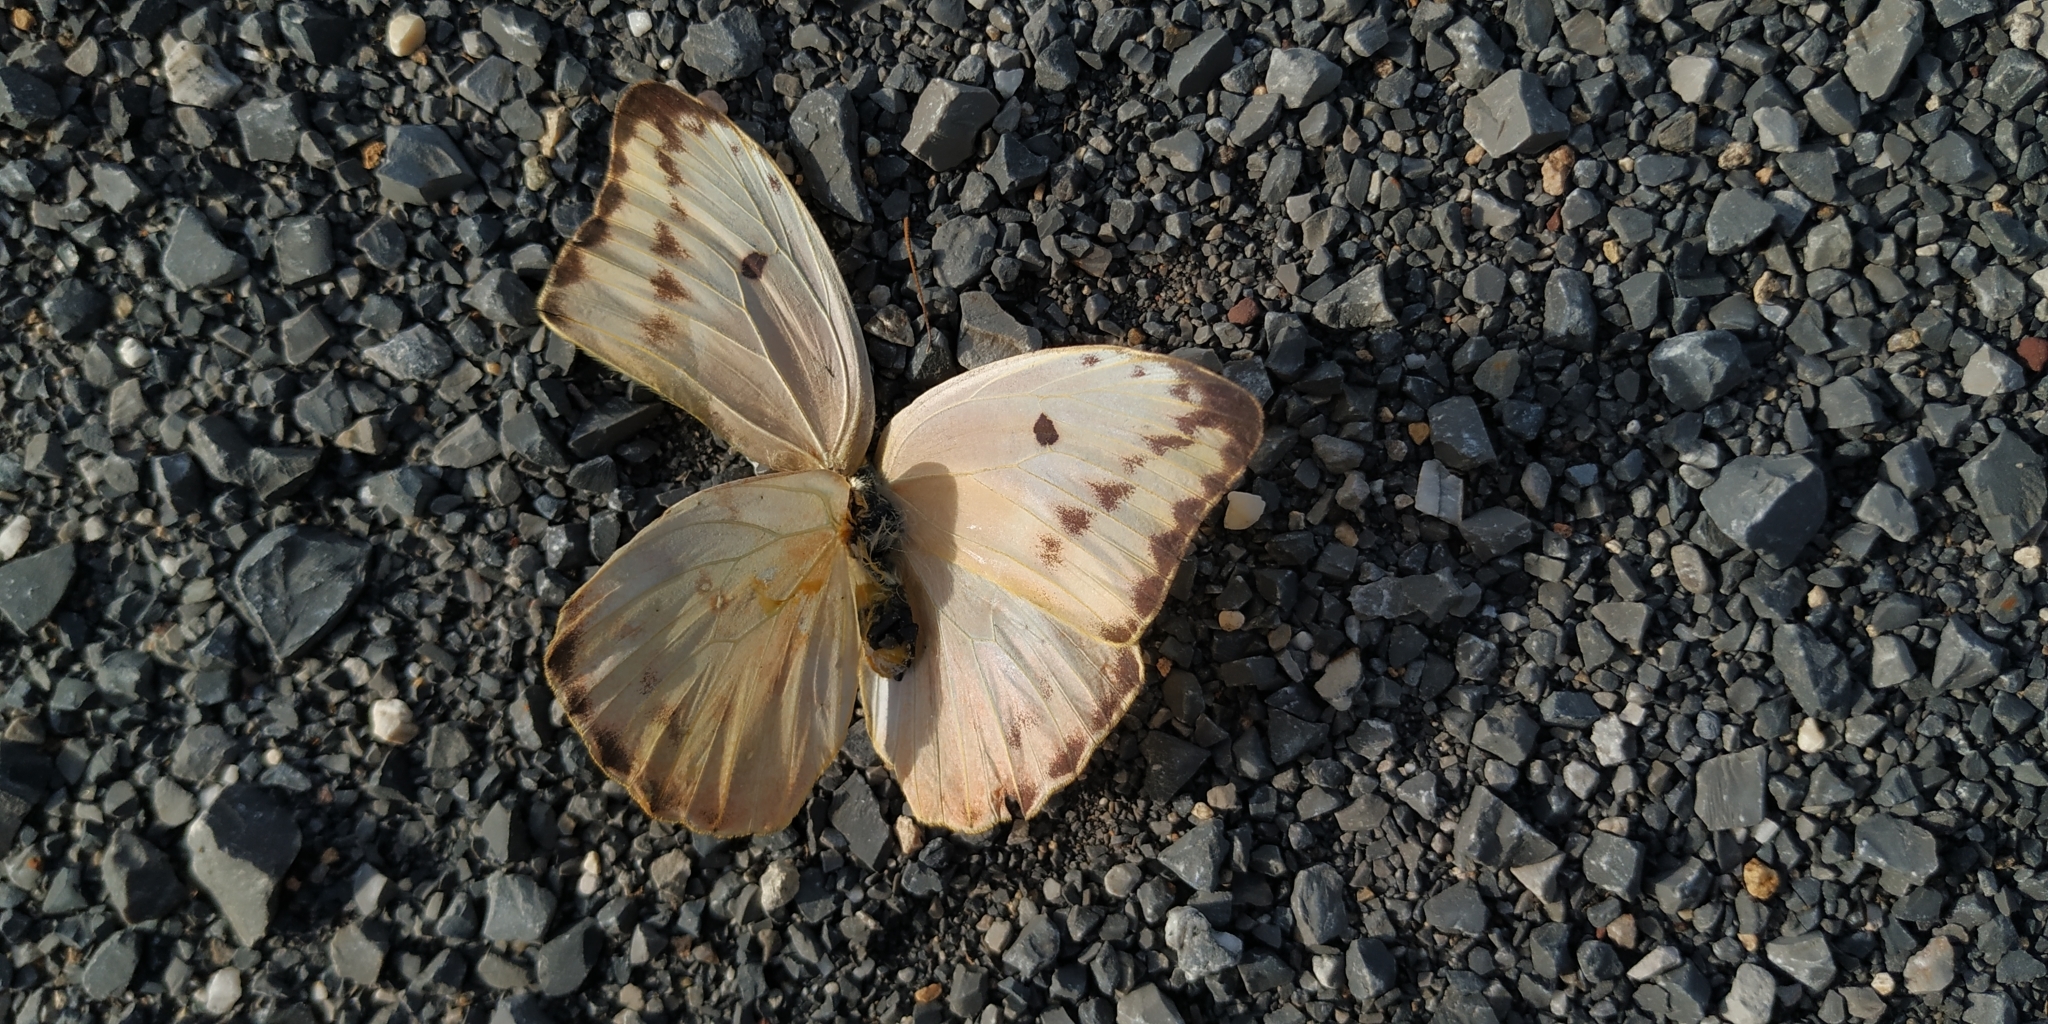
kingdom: Animalia
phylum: Arthropoda
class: Insecta
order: Lepidoptera
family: Pieridae
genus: Phoebis
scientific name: Phoebis agarithe
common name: Large orange sulphur
